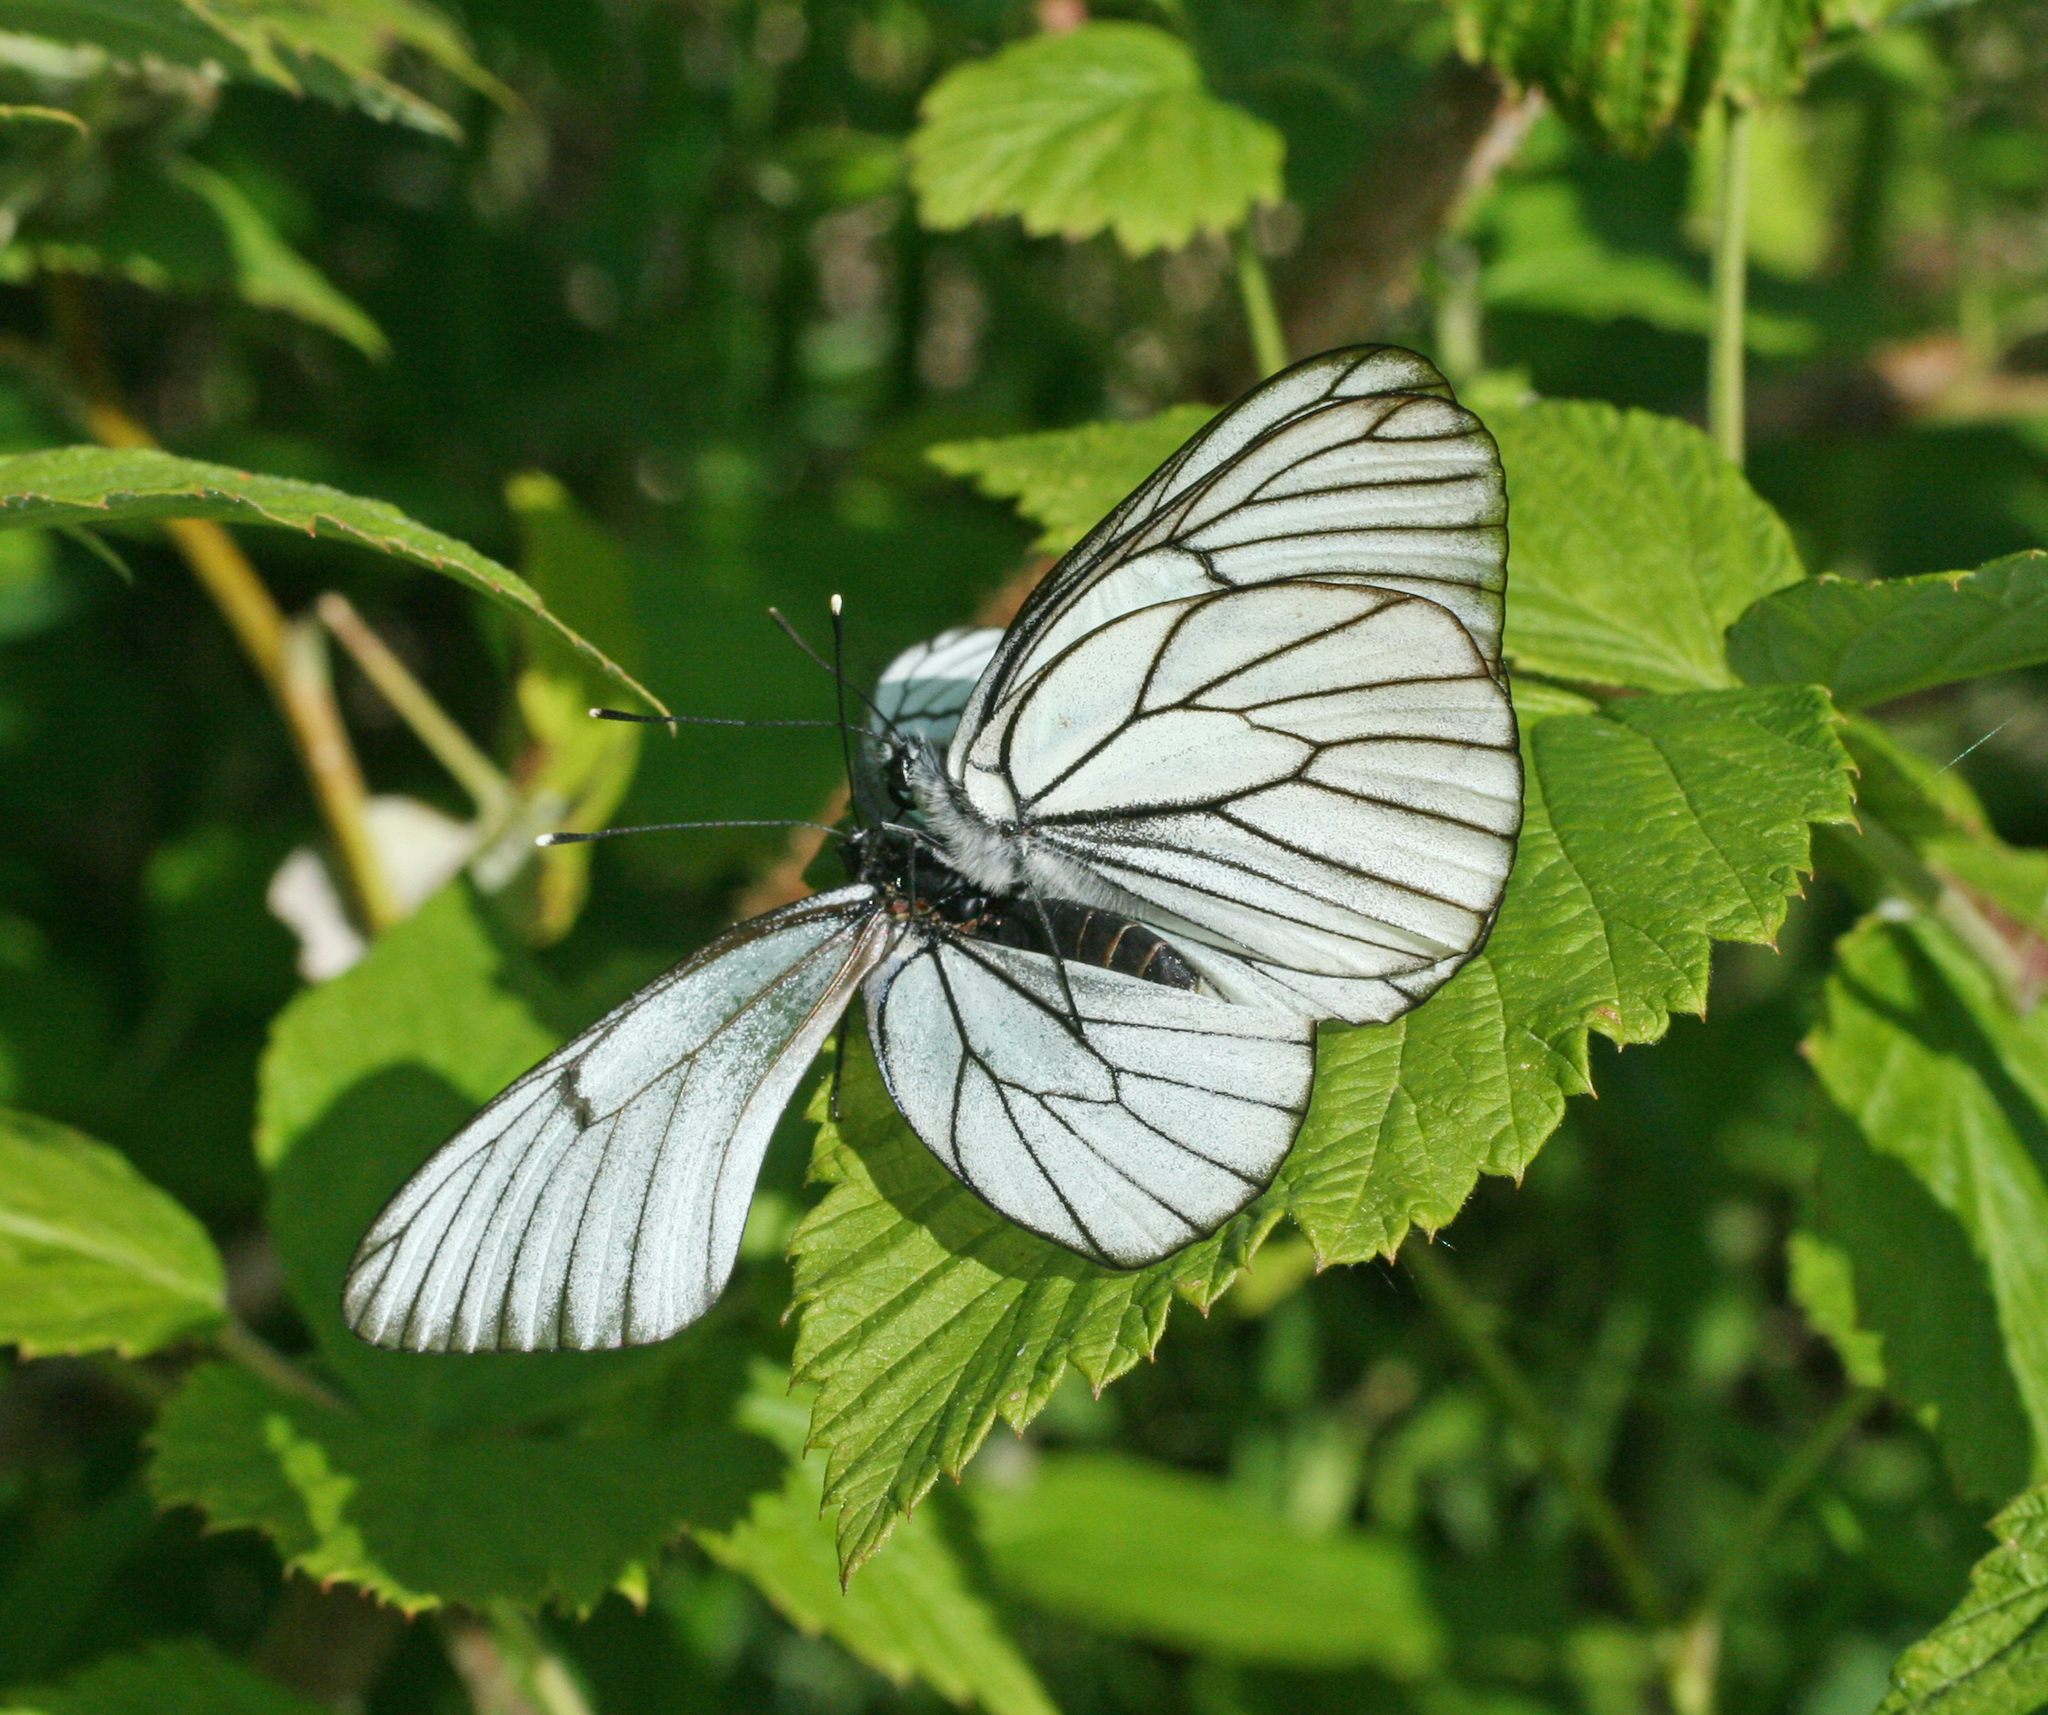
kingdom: Animalia
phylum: Arthropoda
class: Insecta
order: Lepidoptera
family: Pieridae
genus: Aporia
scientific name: Aporia crataegi
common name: Black-veined white
